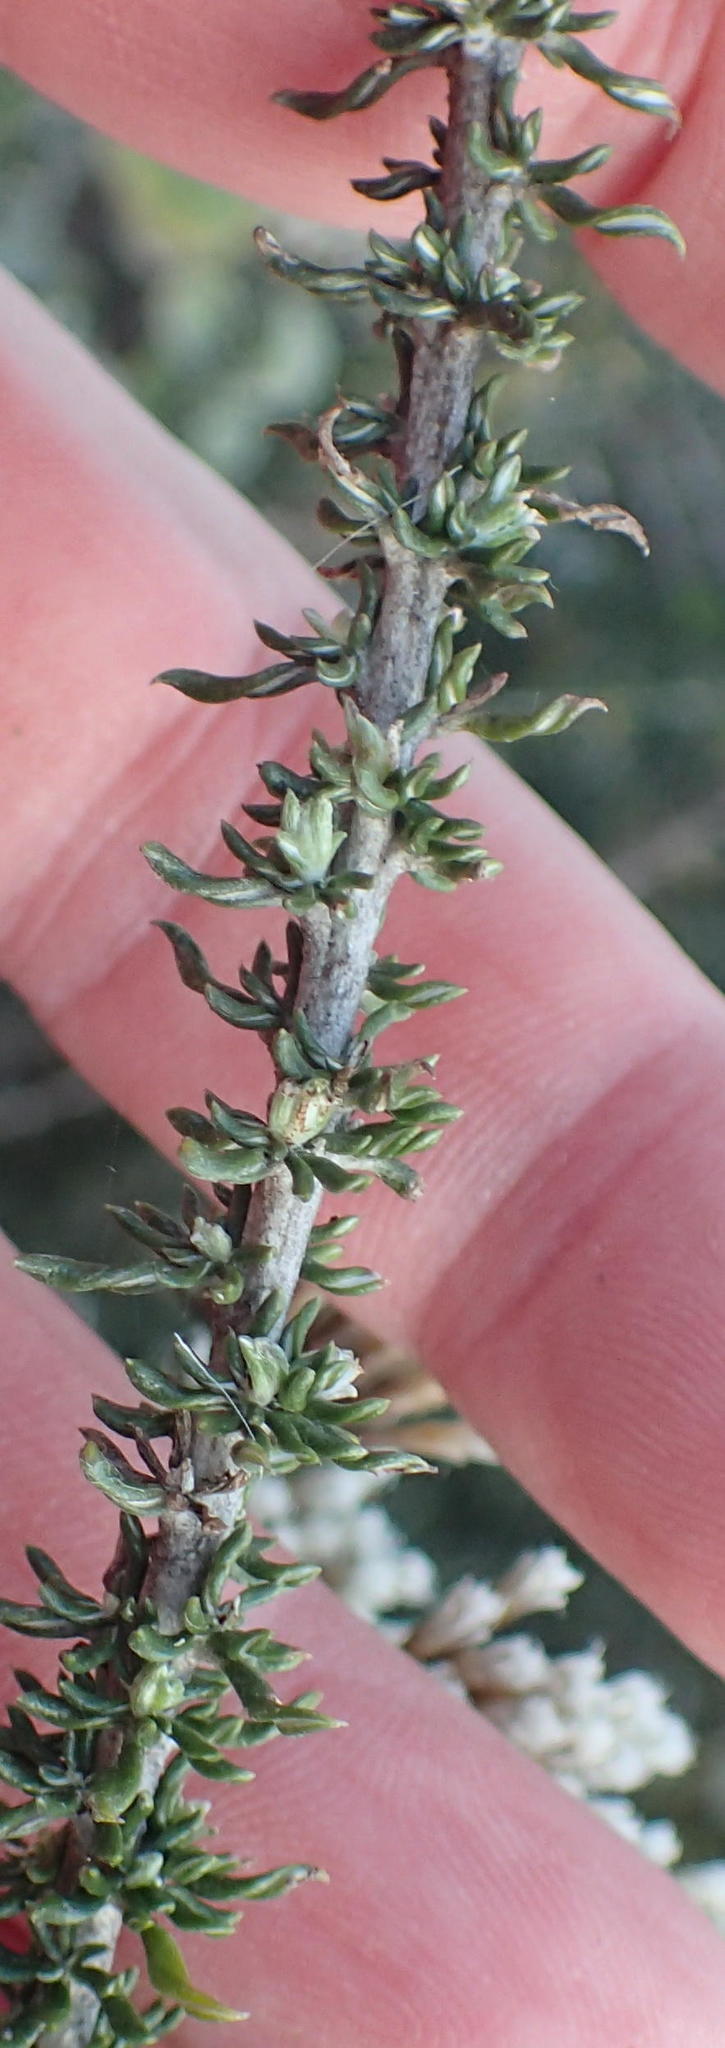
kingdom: Plantae
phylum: Tracheophyta
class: Magnoliopsida
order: Asterales
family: Asteraceae
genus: Metalasia
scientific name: Metalasia muricata
